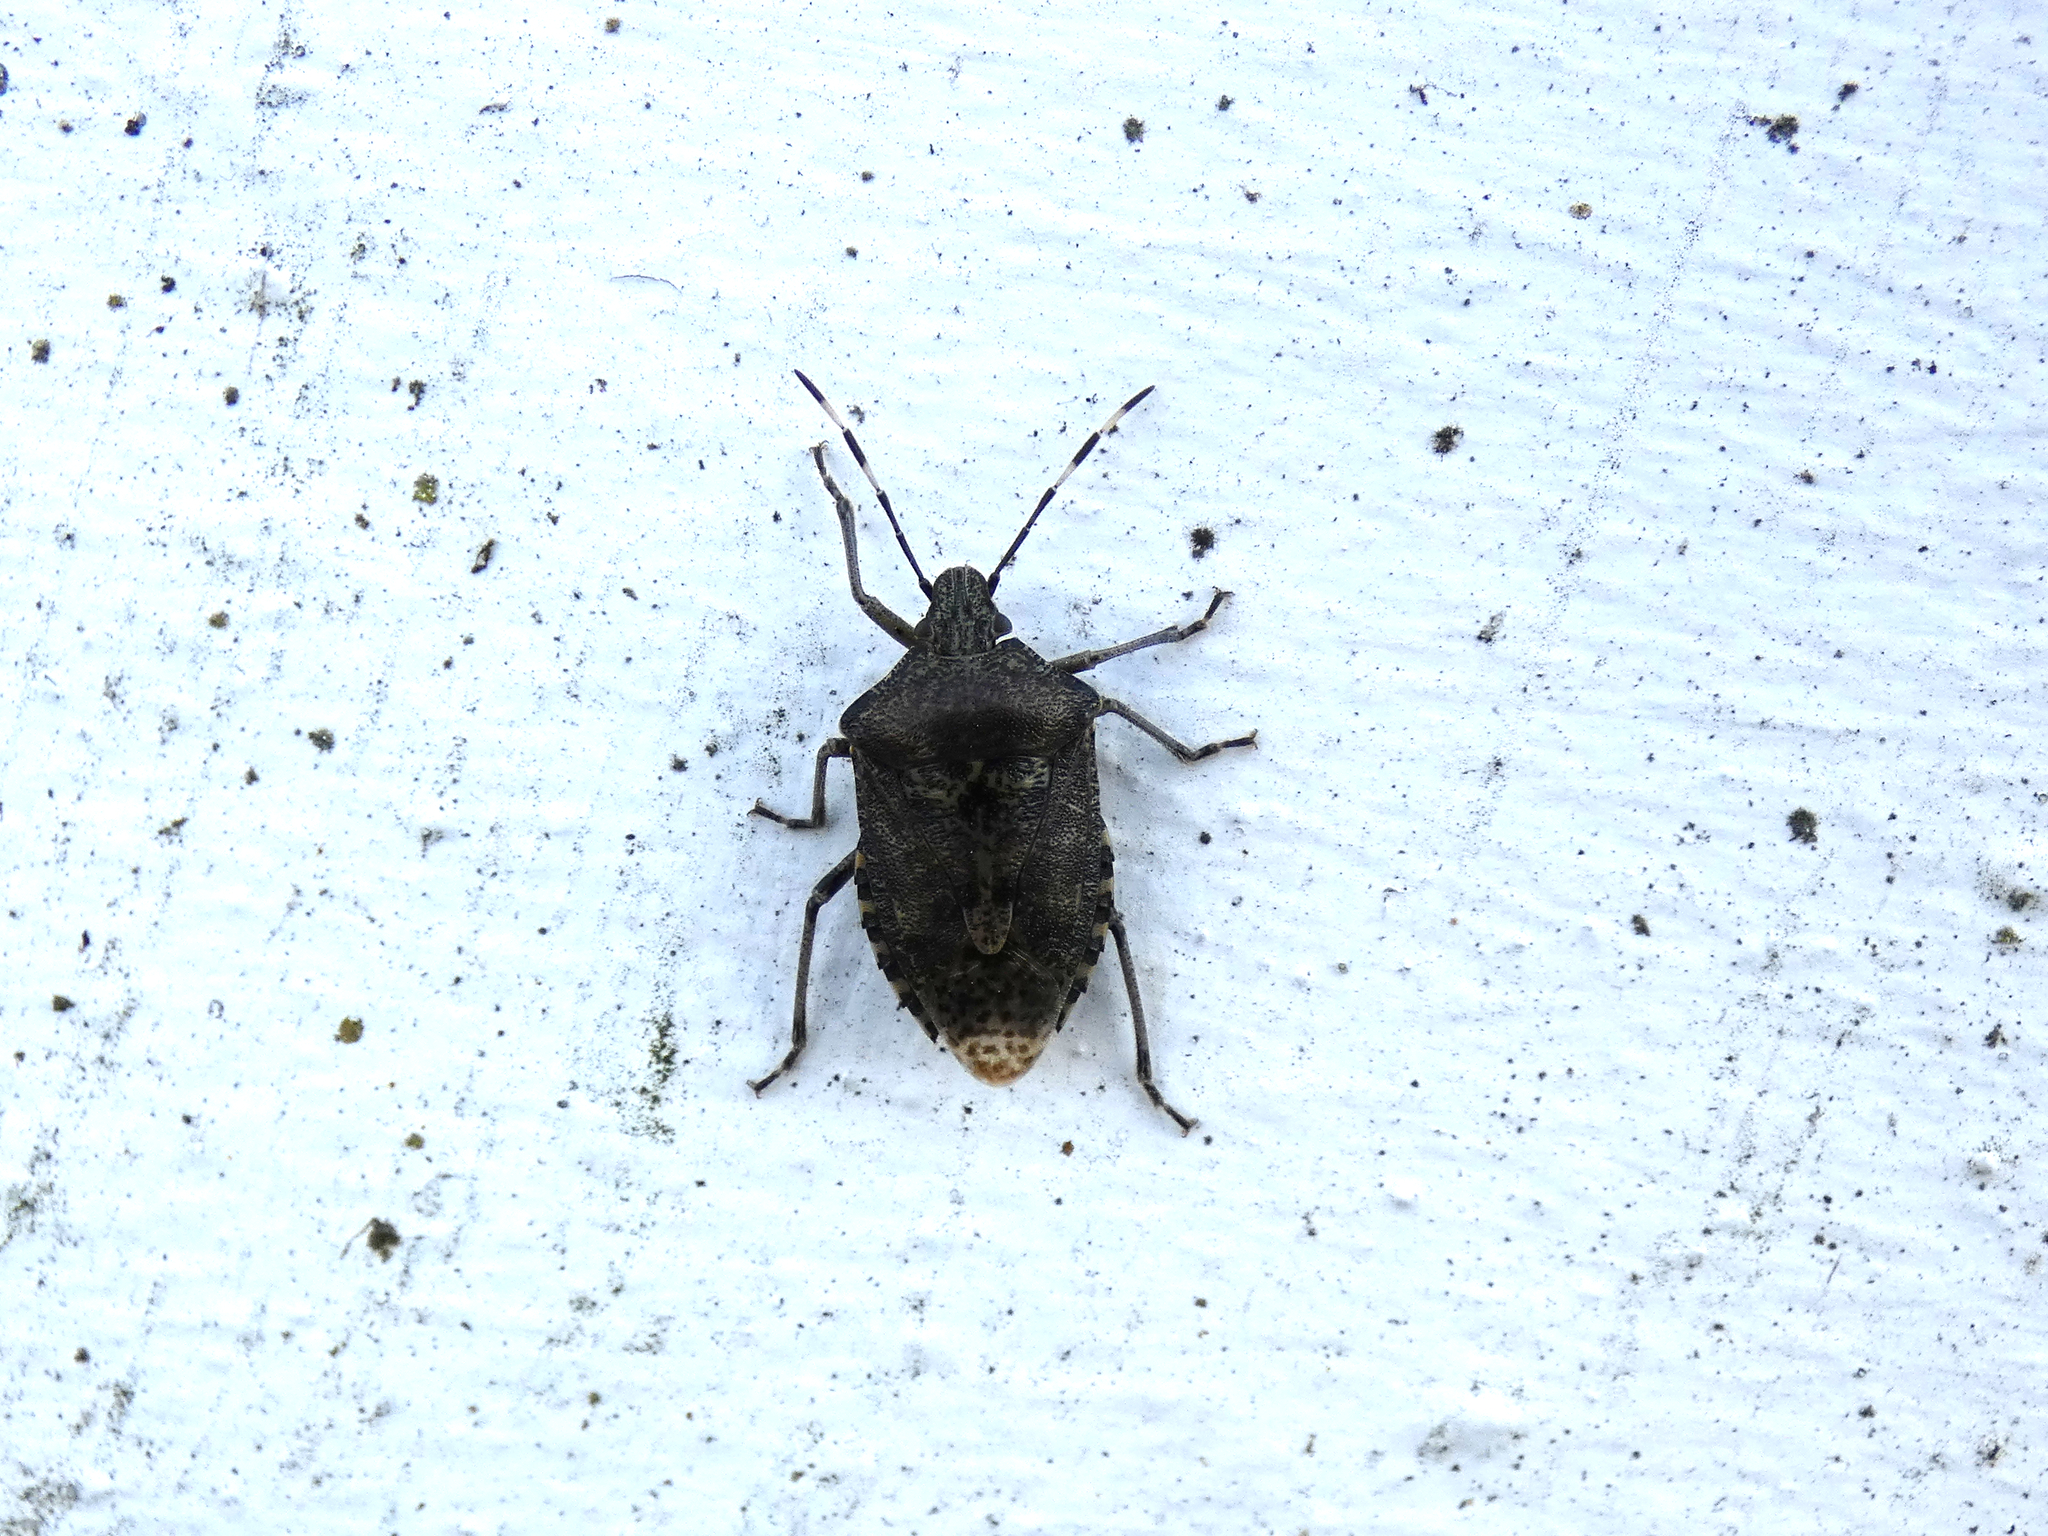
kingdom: Animalia
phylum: Arthropoda
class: Insecta
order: Hemiptera
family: Pentatomidae
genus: Rhaphigaster
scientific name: Rhaphigaster nebulosa
